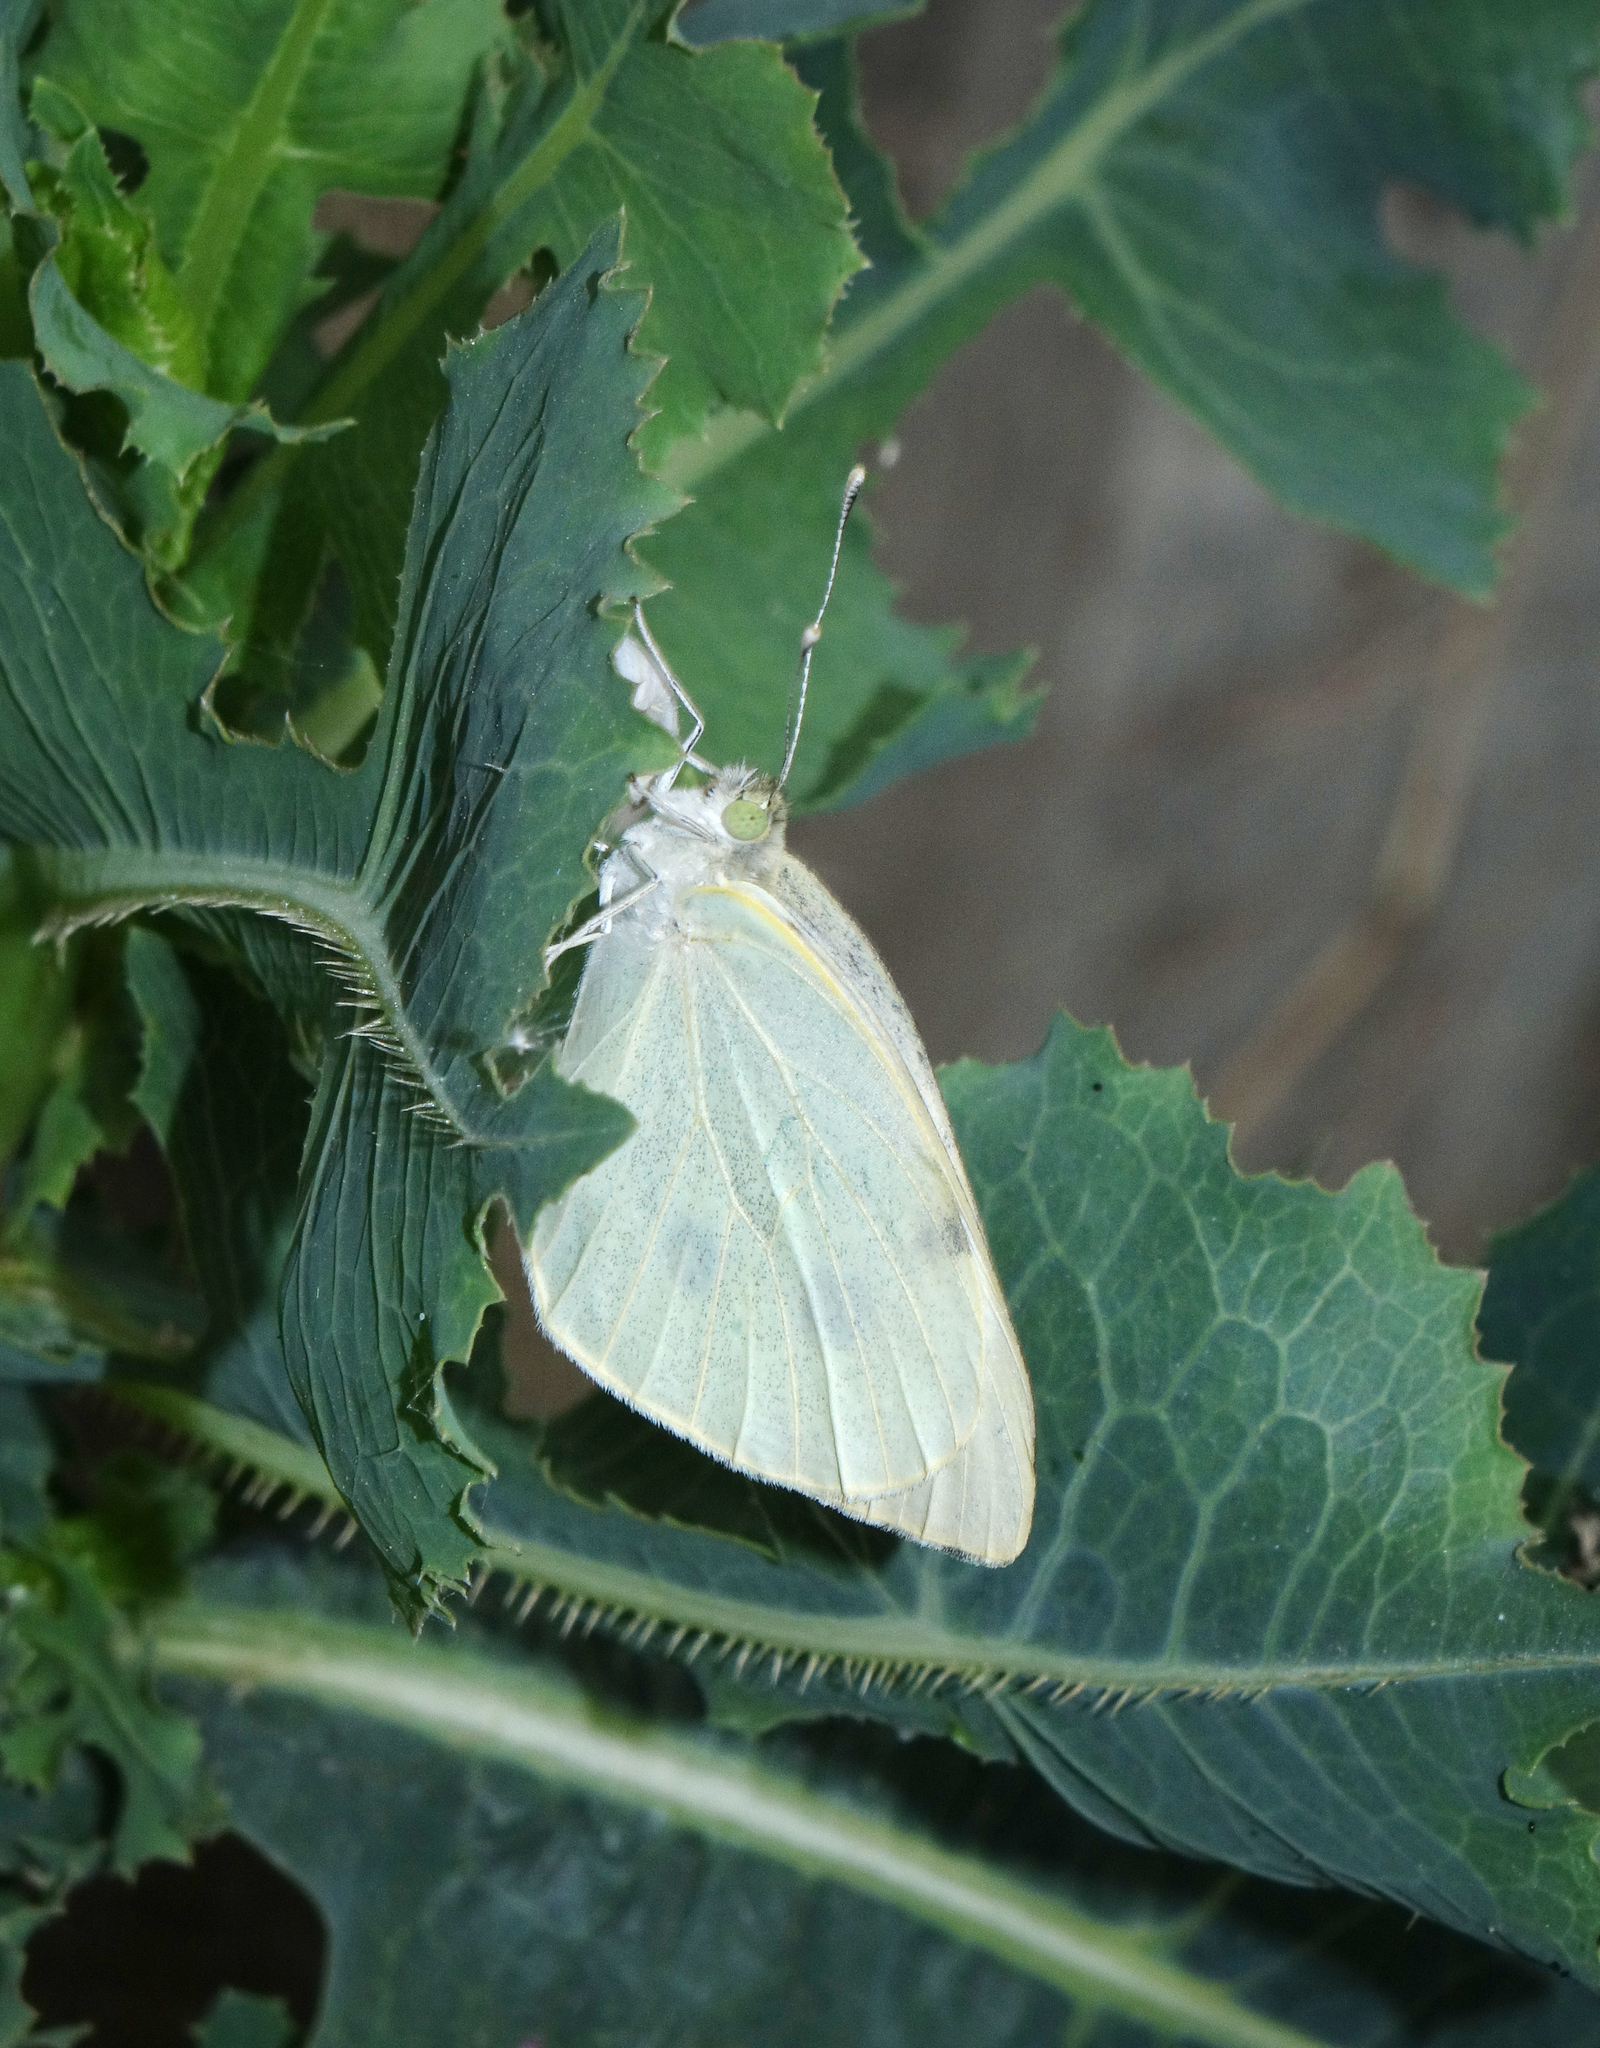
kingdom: Animalia
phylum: Arthropoda
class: Insecta
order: Lepidoptera
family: Pieridae
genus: Pieris
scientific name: Pieris rapae
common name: Small white
